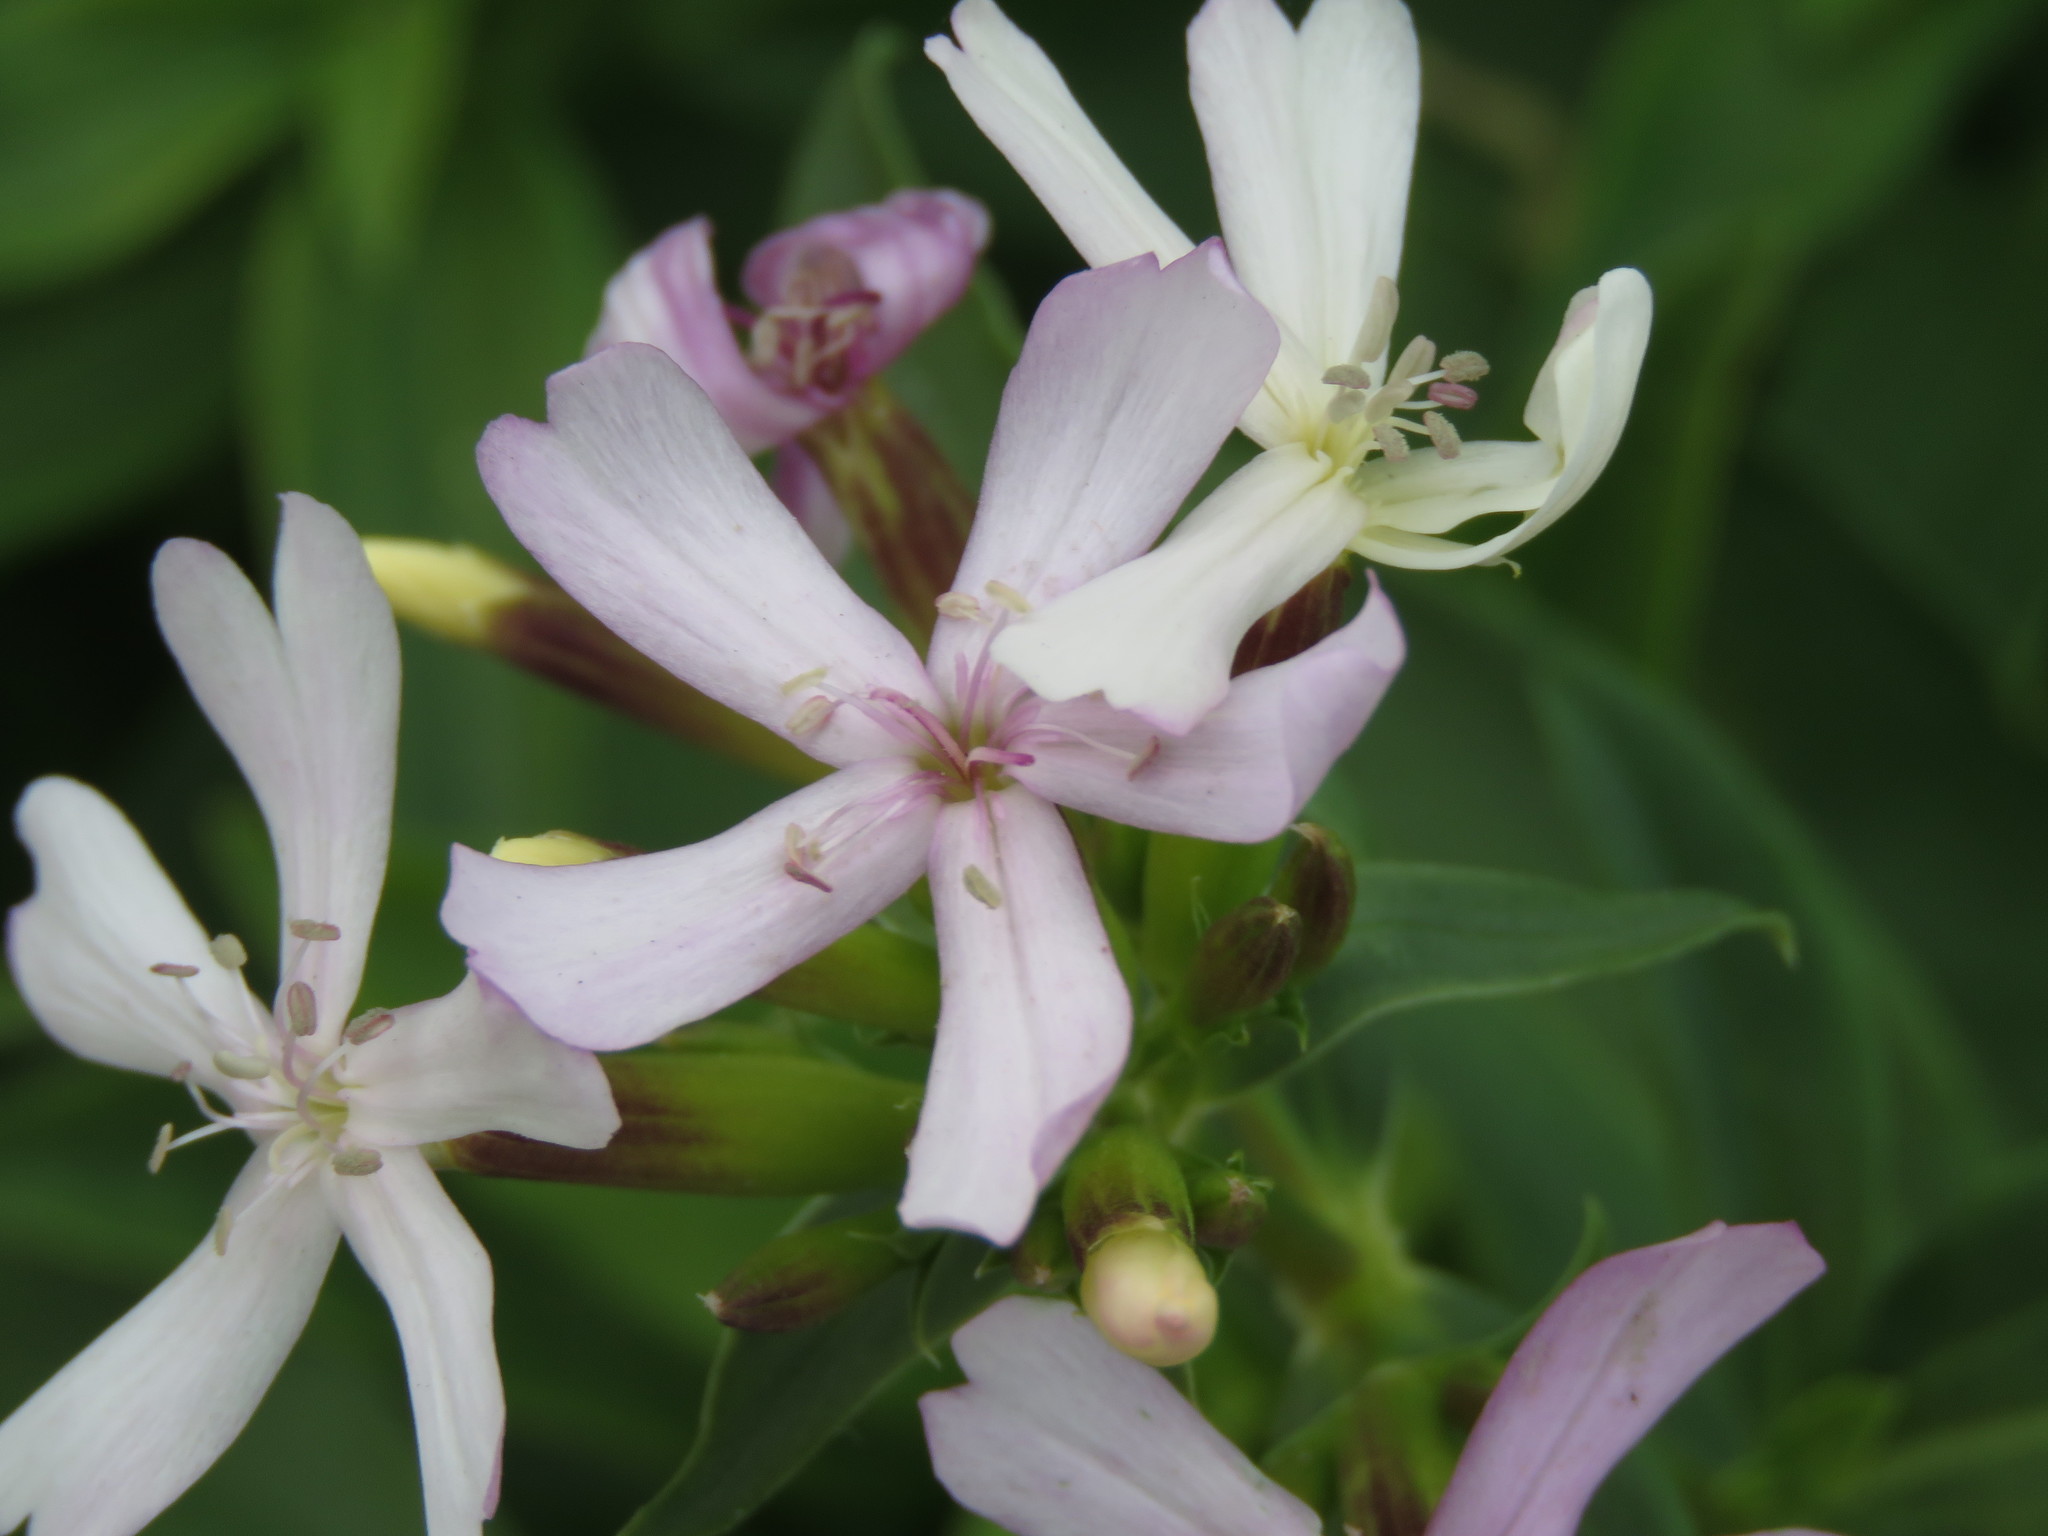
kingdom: Plantae
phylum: Tracheophyta
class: Magnoliopsida
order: Caryophyllales
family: Caryophyllaceae
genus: Saponaria
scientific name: Saponaria officinalis
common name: Soapwort
